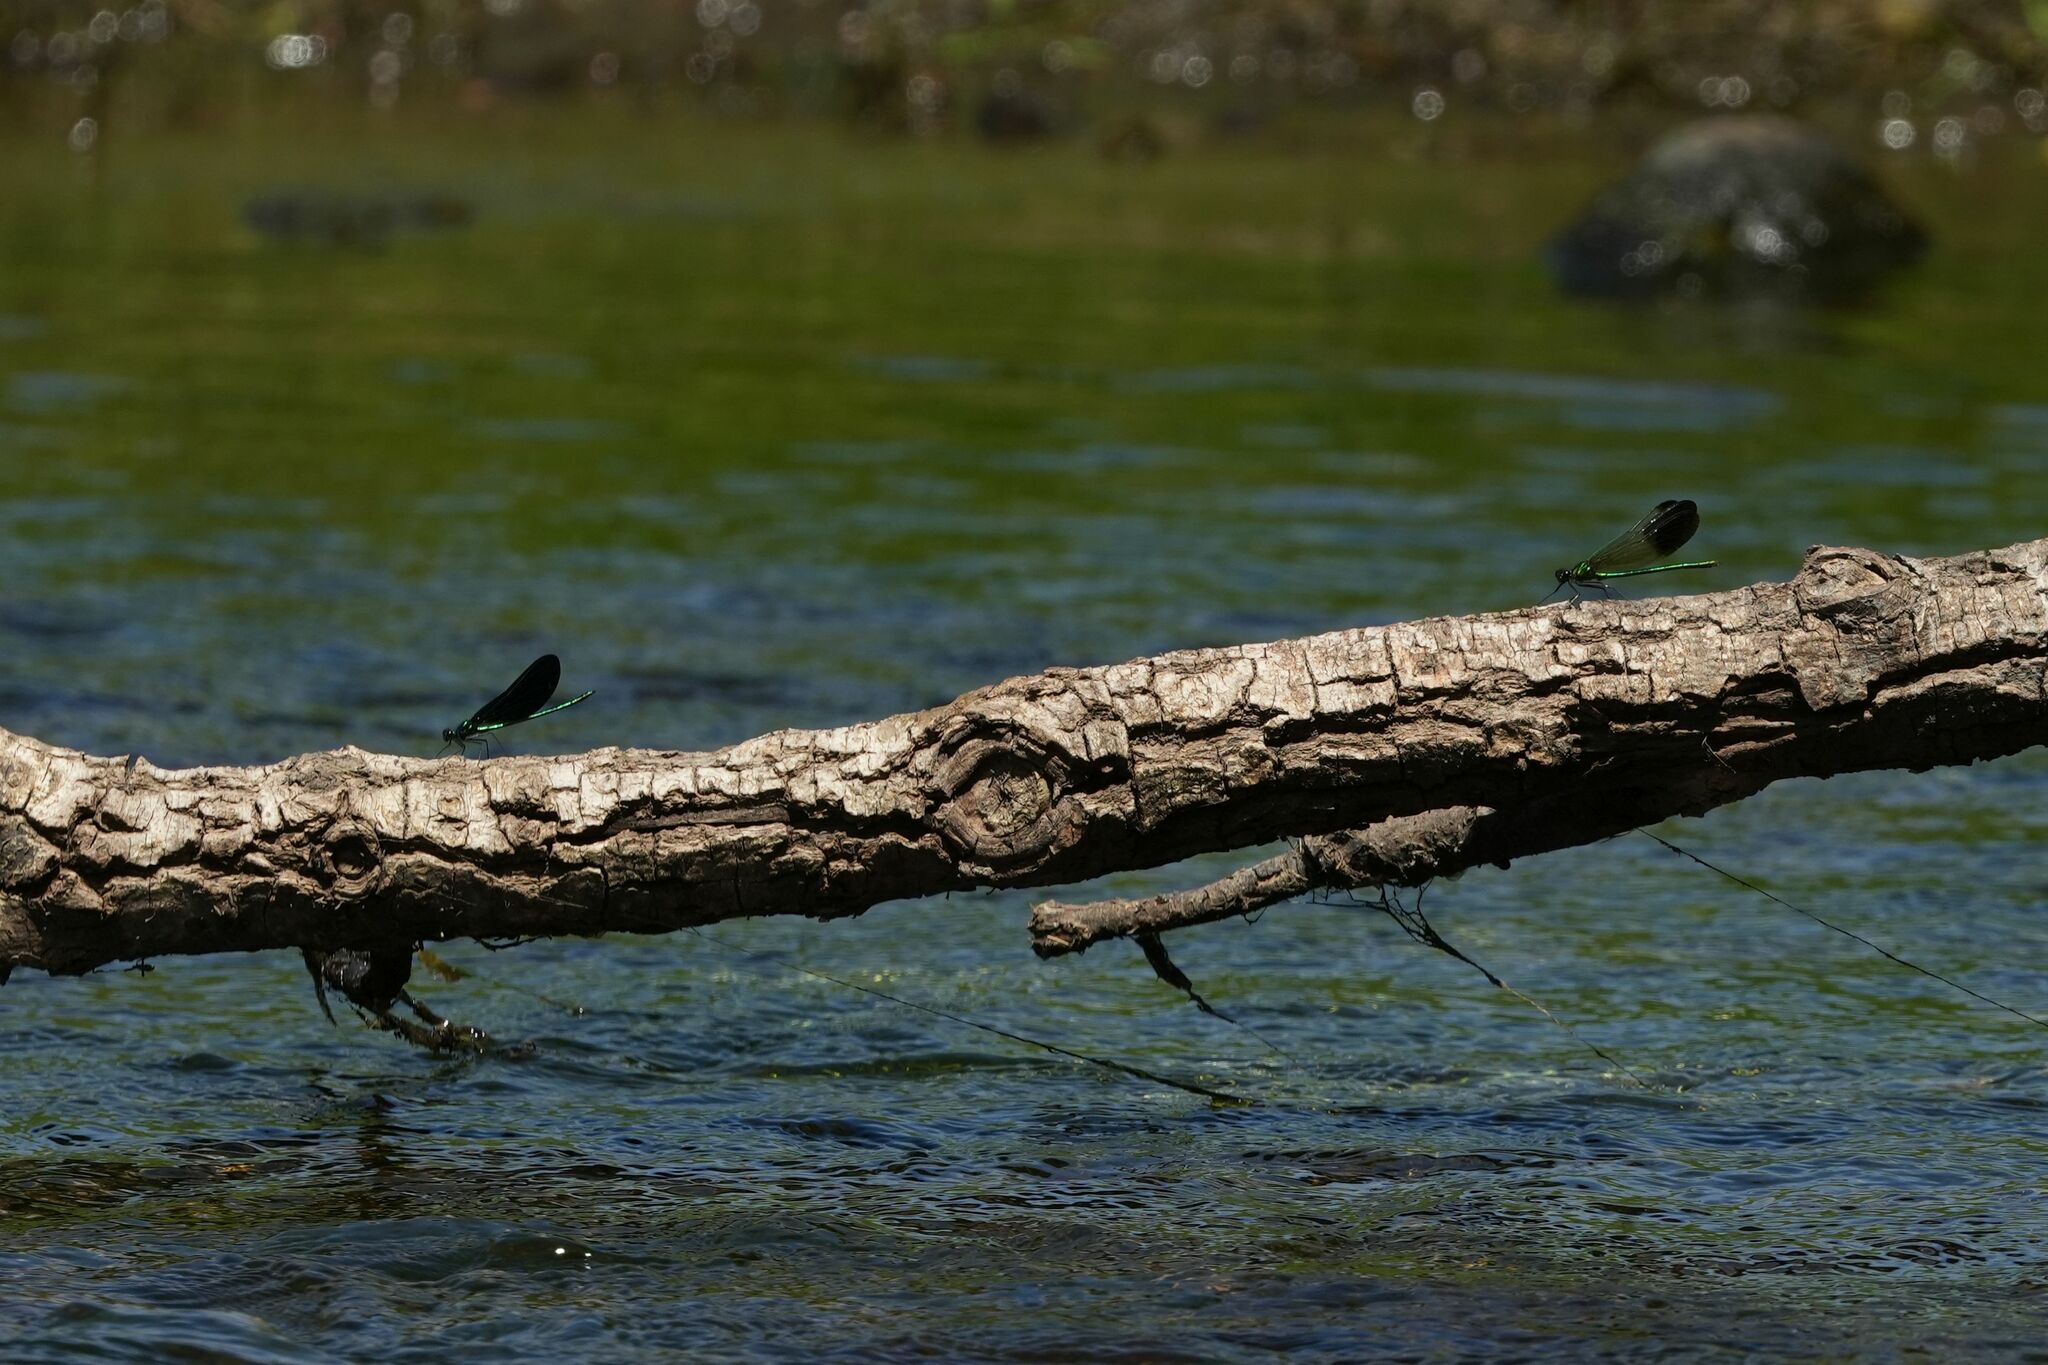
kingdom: Animalia
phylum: Arthropoda
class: Insecta
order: Odonata
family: Calopterygidae
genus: Calopteryx
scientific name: Calopteryx aequabilis
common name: River jewelwing
